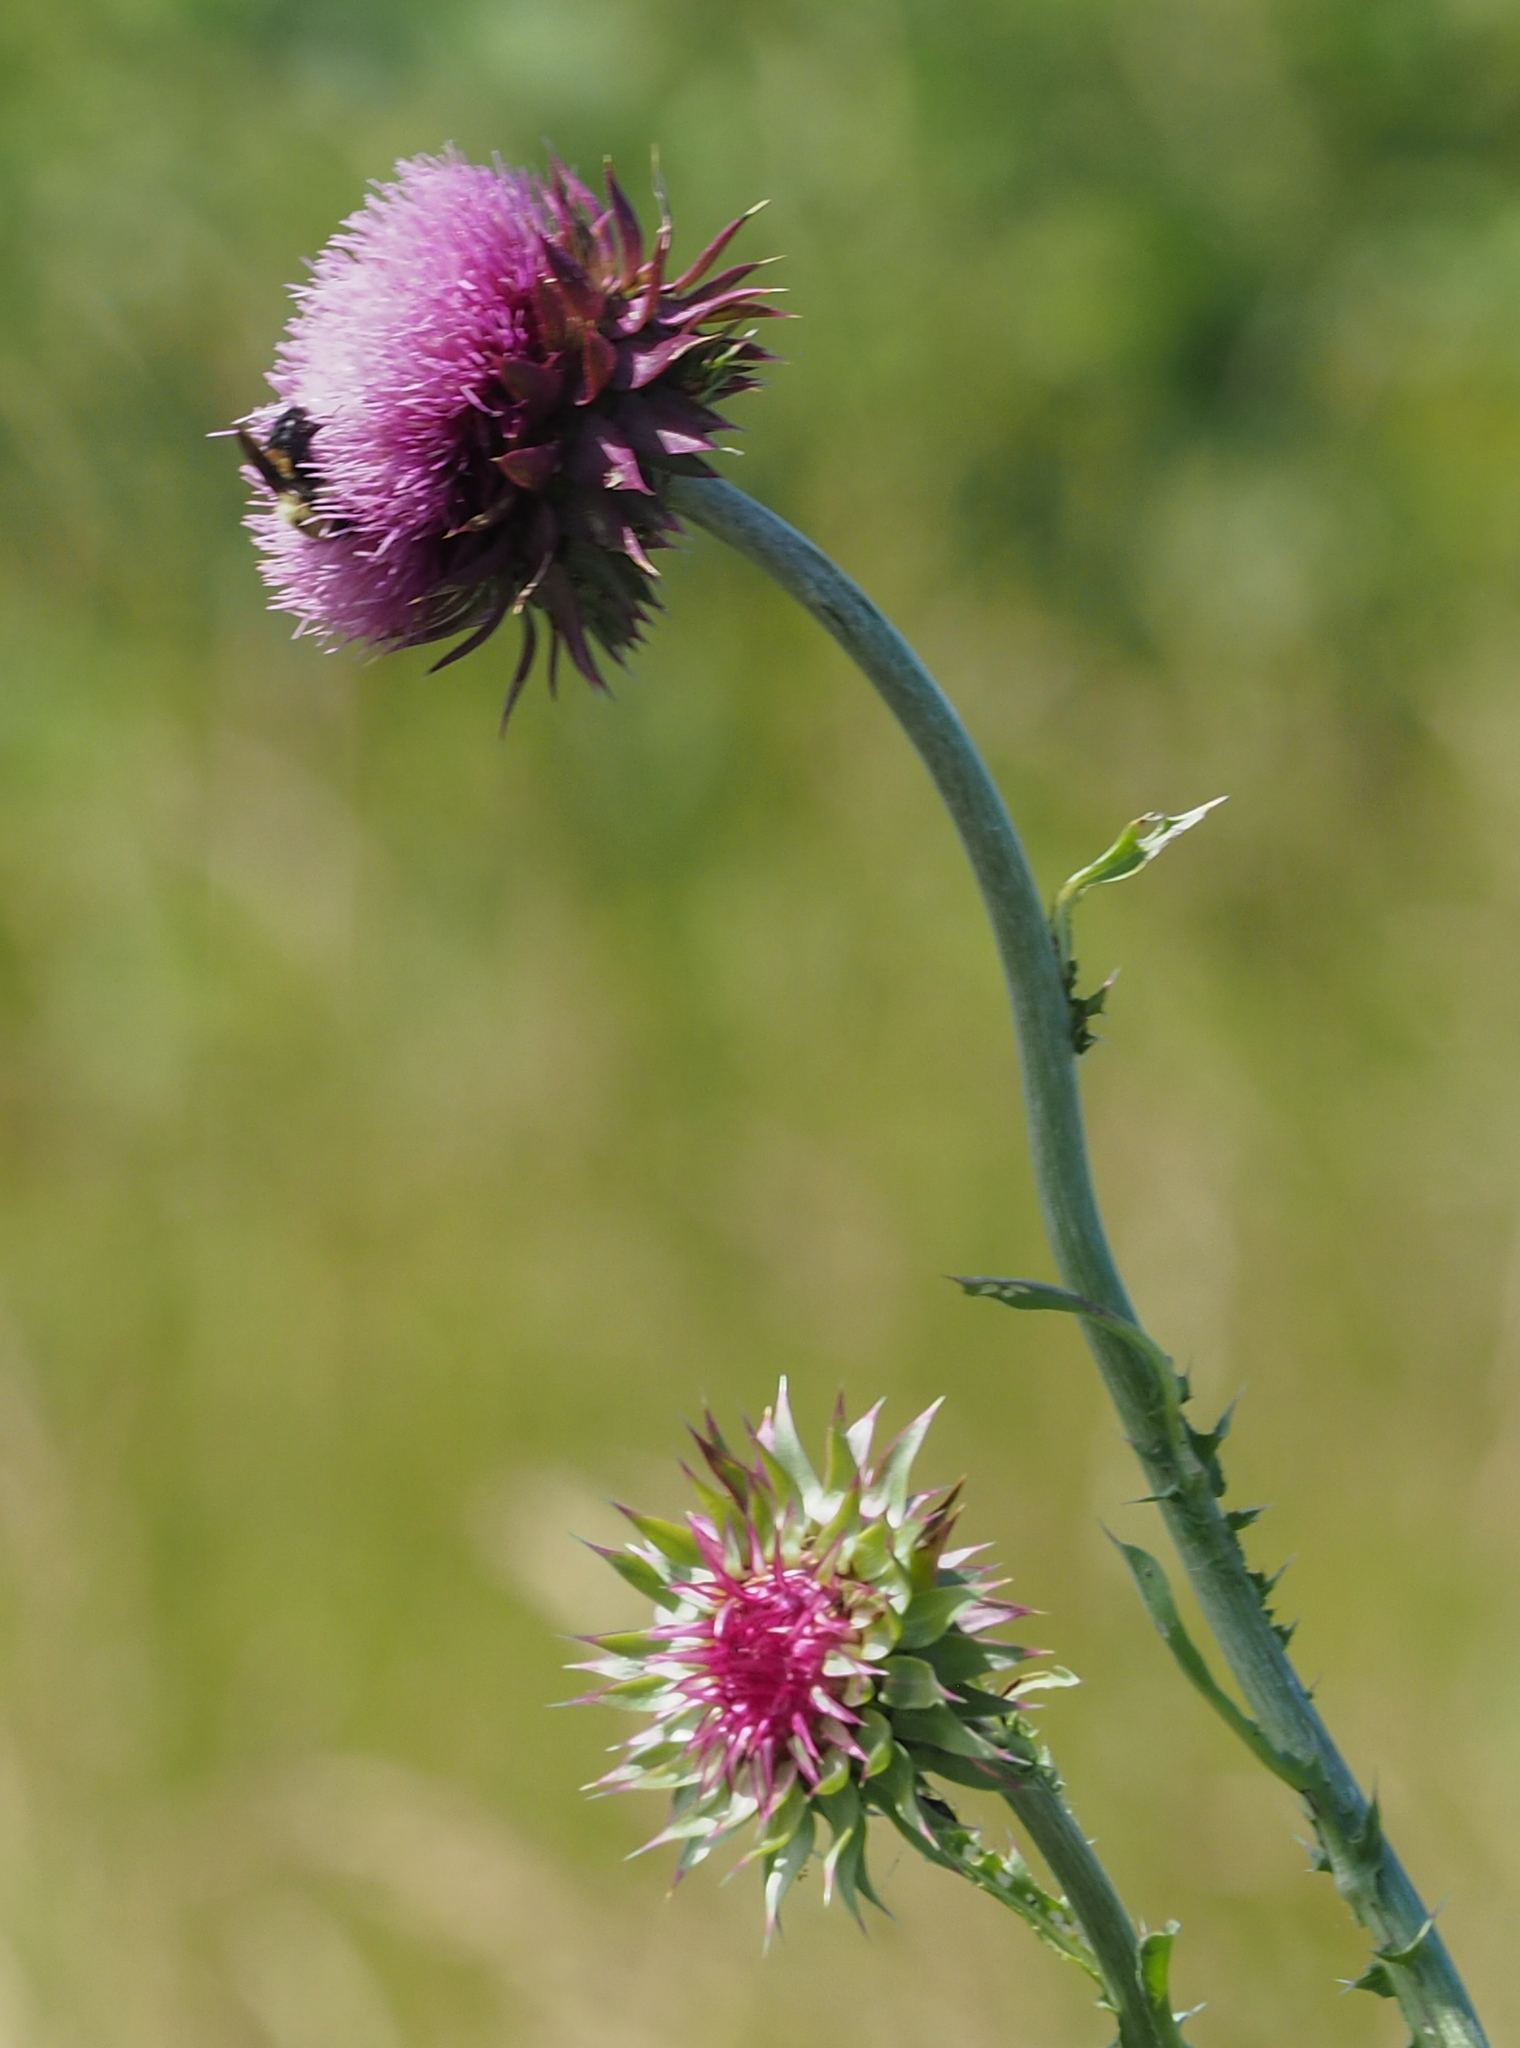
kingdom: Plantae
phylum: Tracheophyta
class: Magnoliopsida
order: Asterales
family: Asteraceae
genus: Carduus
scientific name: Carduus nutans
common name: Musk thistle
